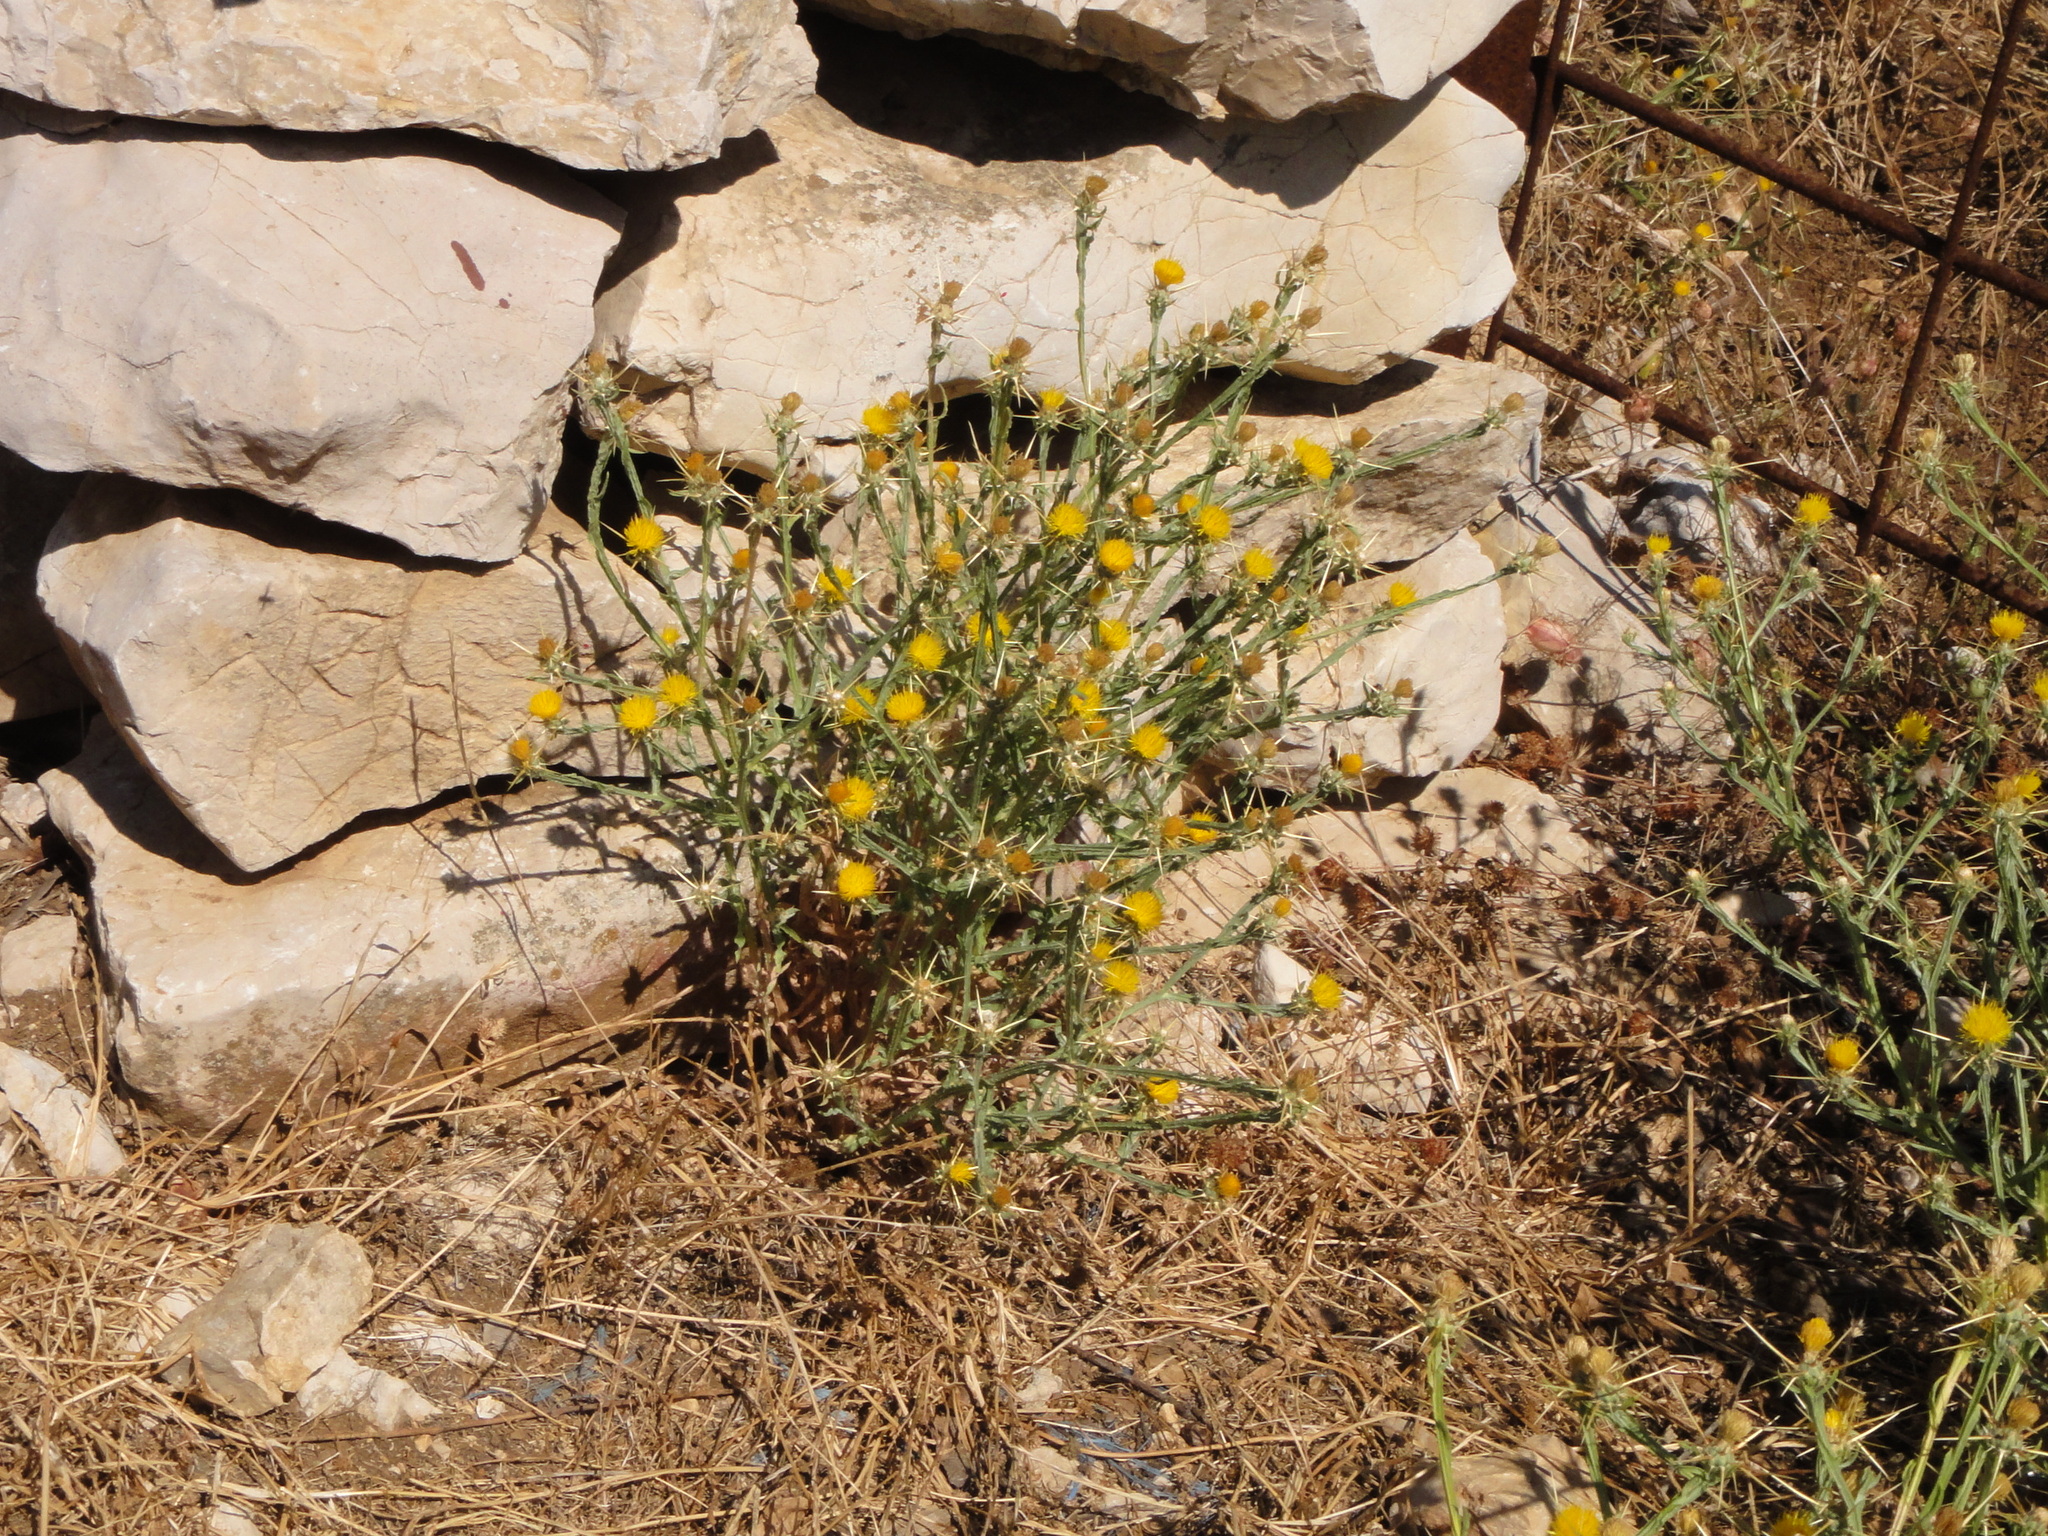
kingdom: Plantae
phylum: Tracheophyta
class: Magnoliopsida
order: Asterales
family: Asteraceae
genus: Centaurea
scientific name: Centaurea solstitialis
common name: Yellow star-thistle
